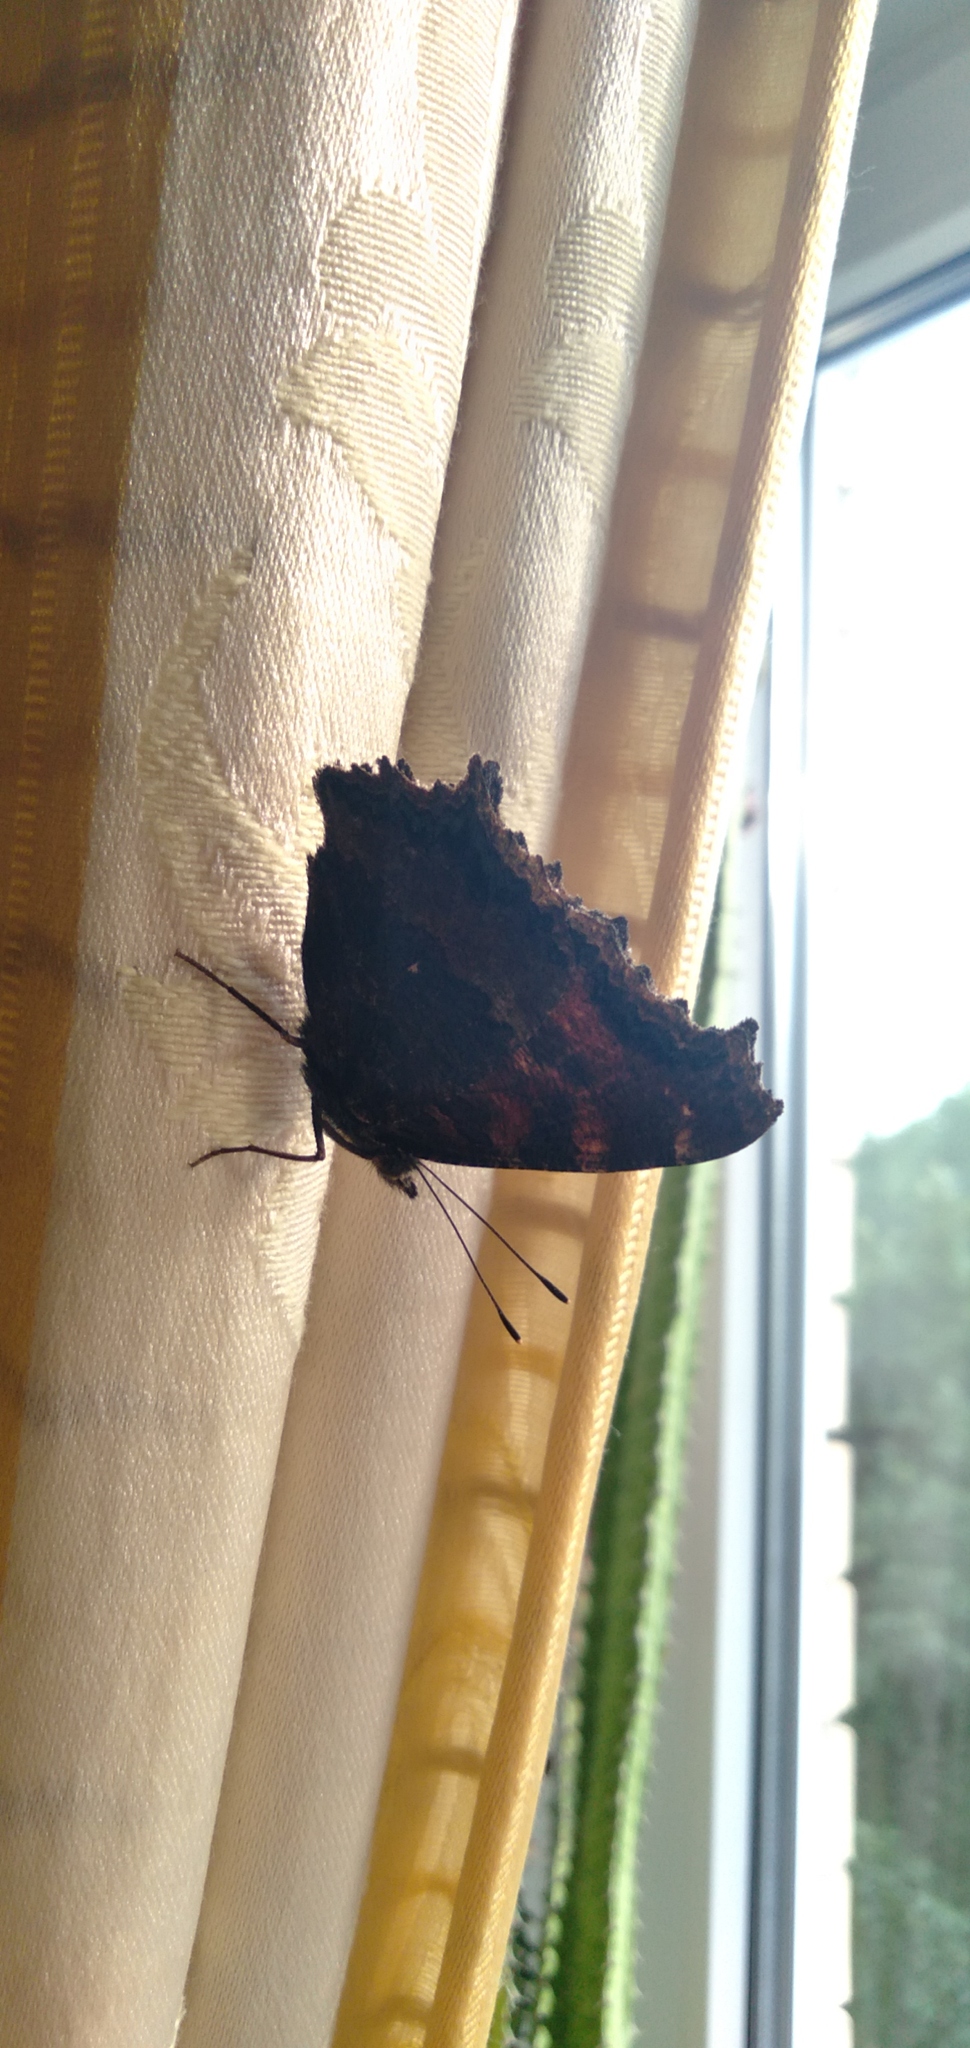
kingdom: Animalia
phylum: Arthropoda
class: Insecta
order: Lepidoptera
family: Nymphalidae
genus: Nymphalis
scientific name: Nymphalis xanthomelas
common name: Scarce tortoiseshell
